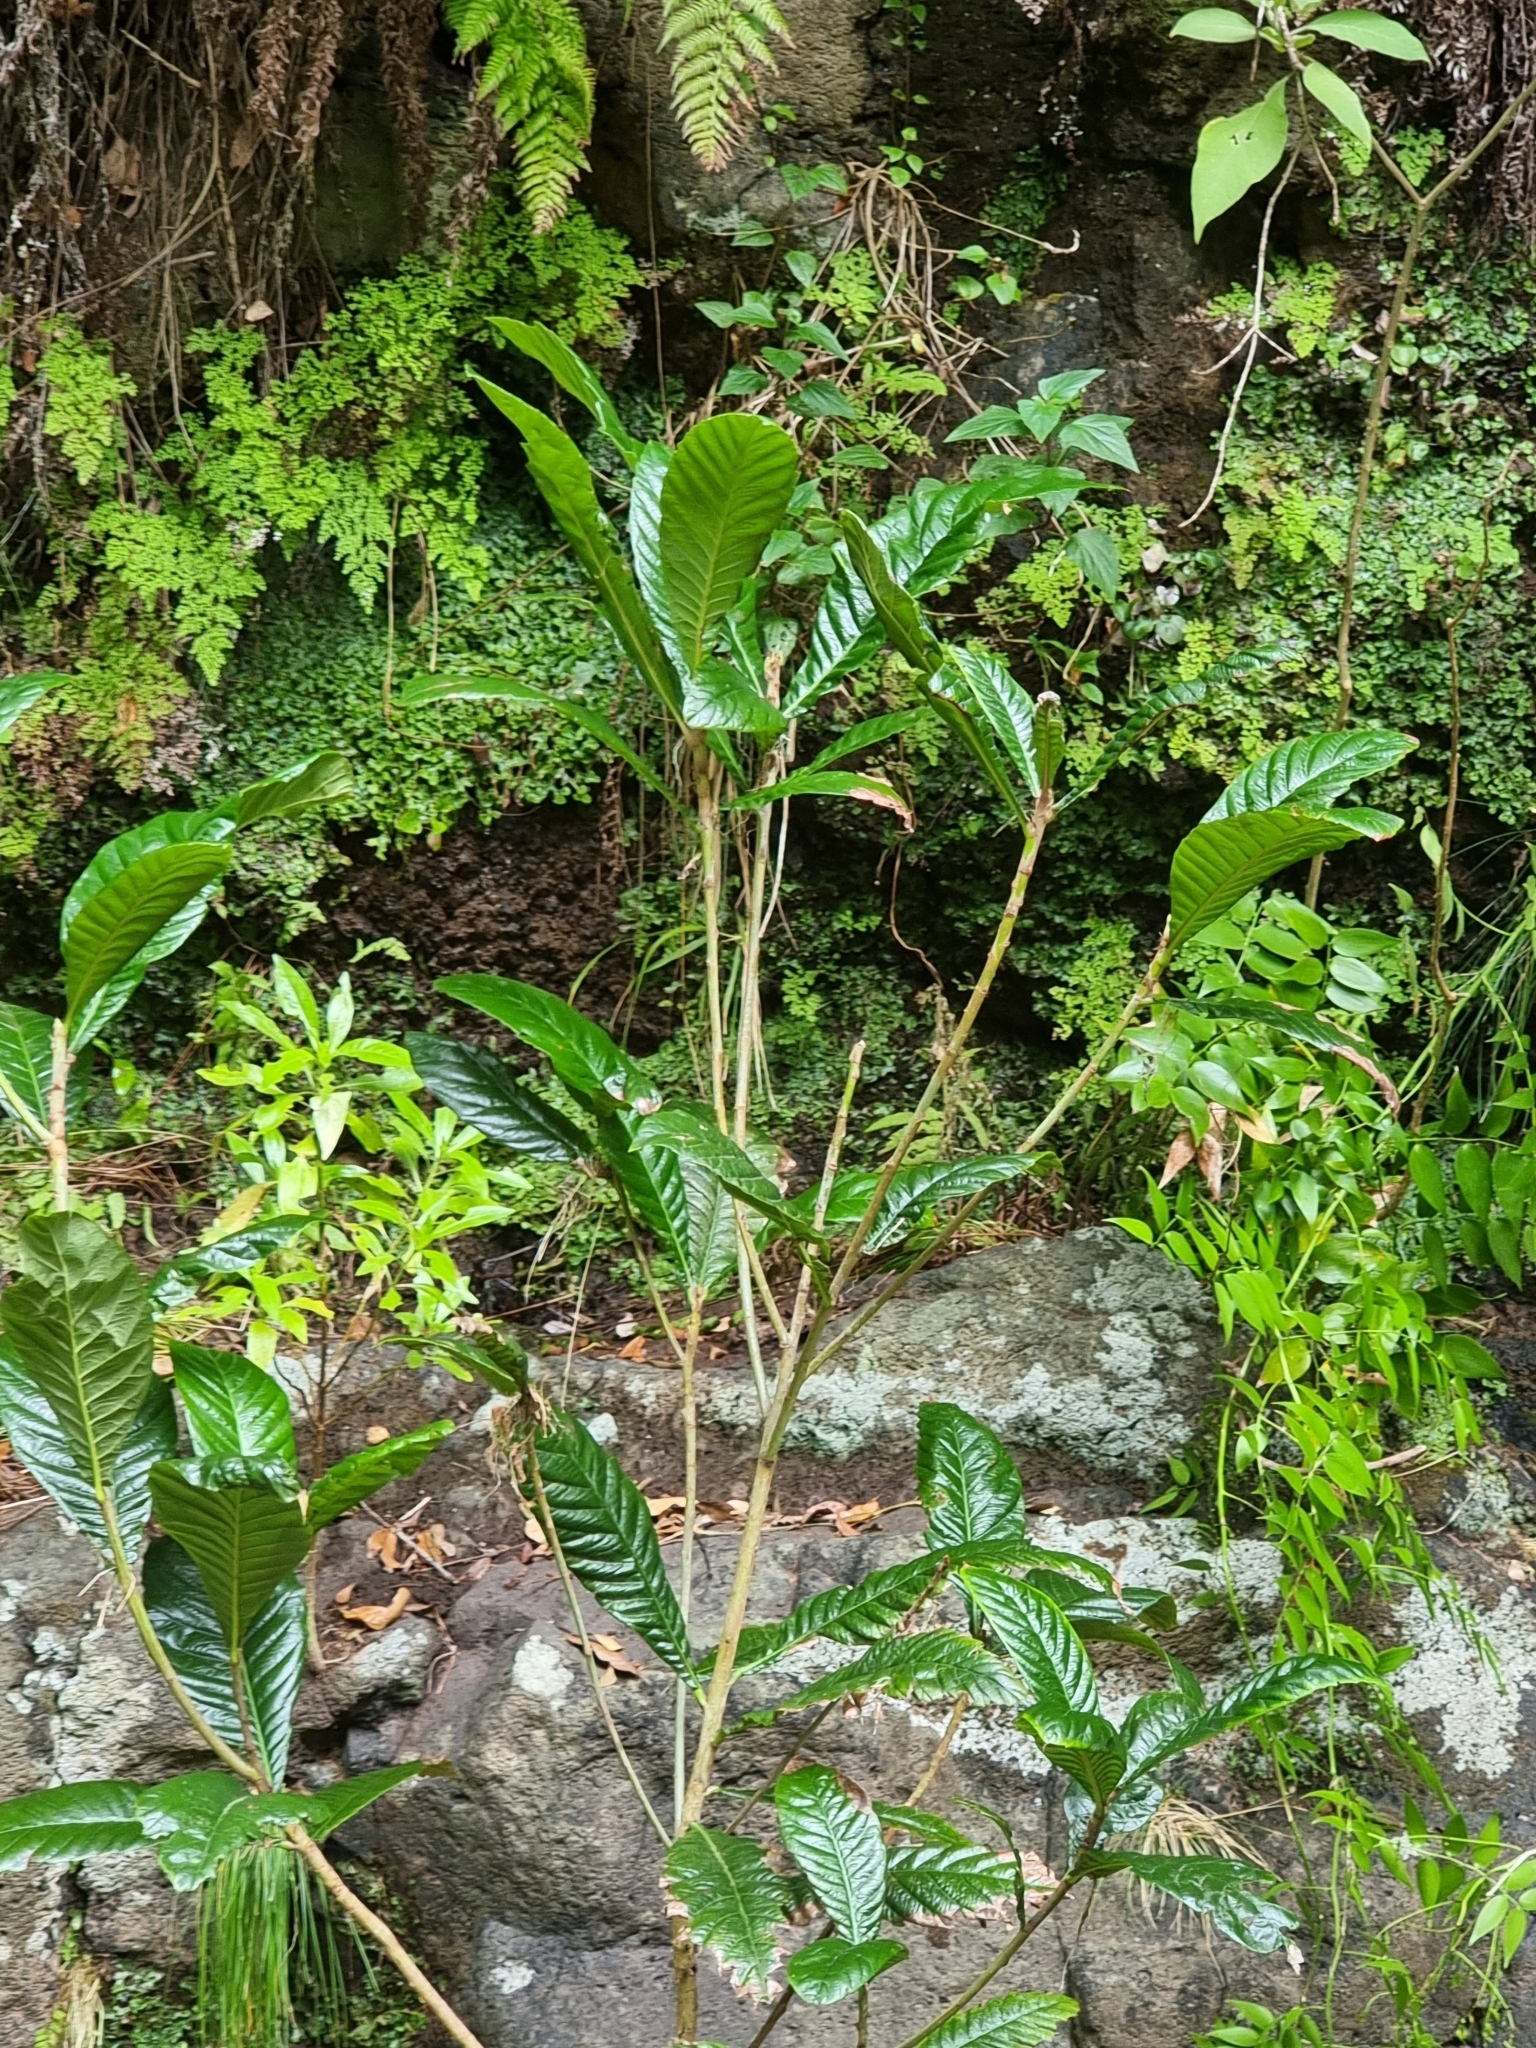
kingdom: Plantae
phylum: Tracheophyta
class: Magnoliopsida
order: Rosales
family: Rosaceae
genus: Rhaphiolepis
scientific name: Rhaphiolepis bibas
